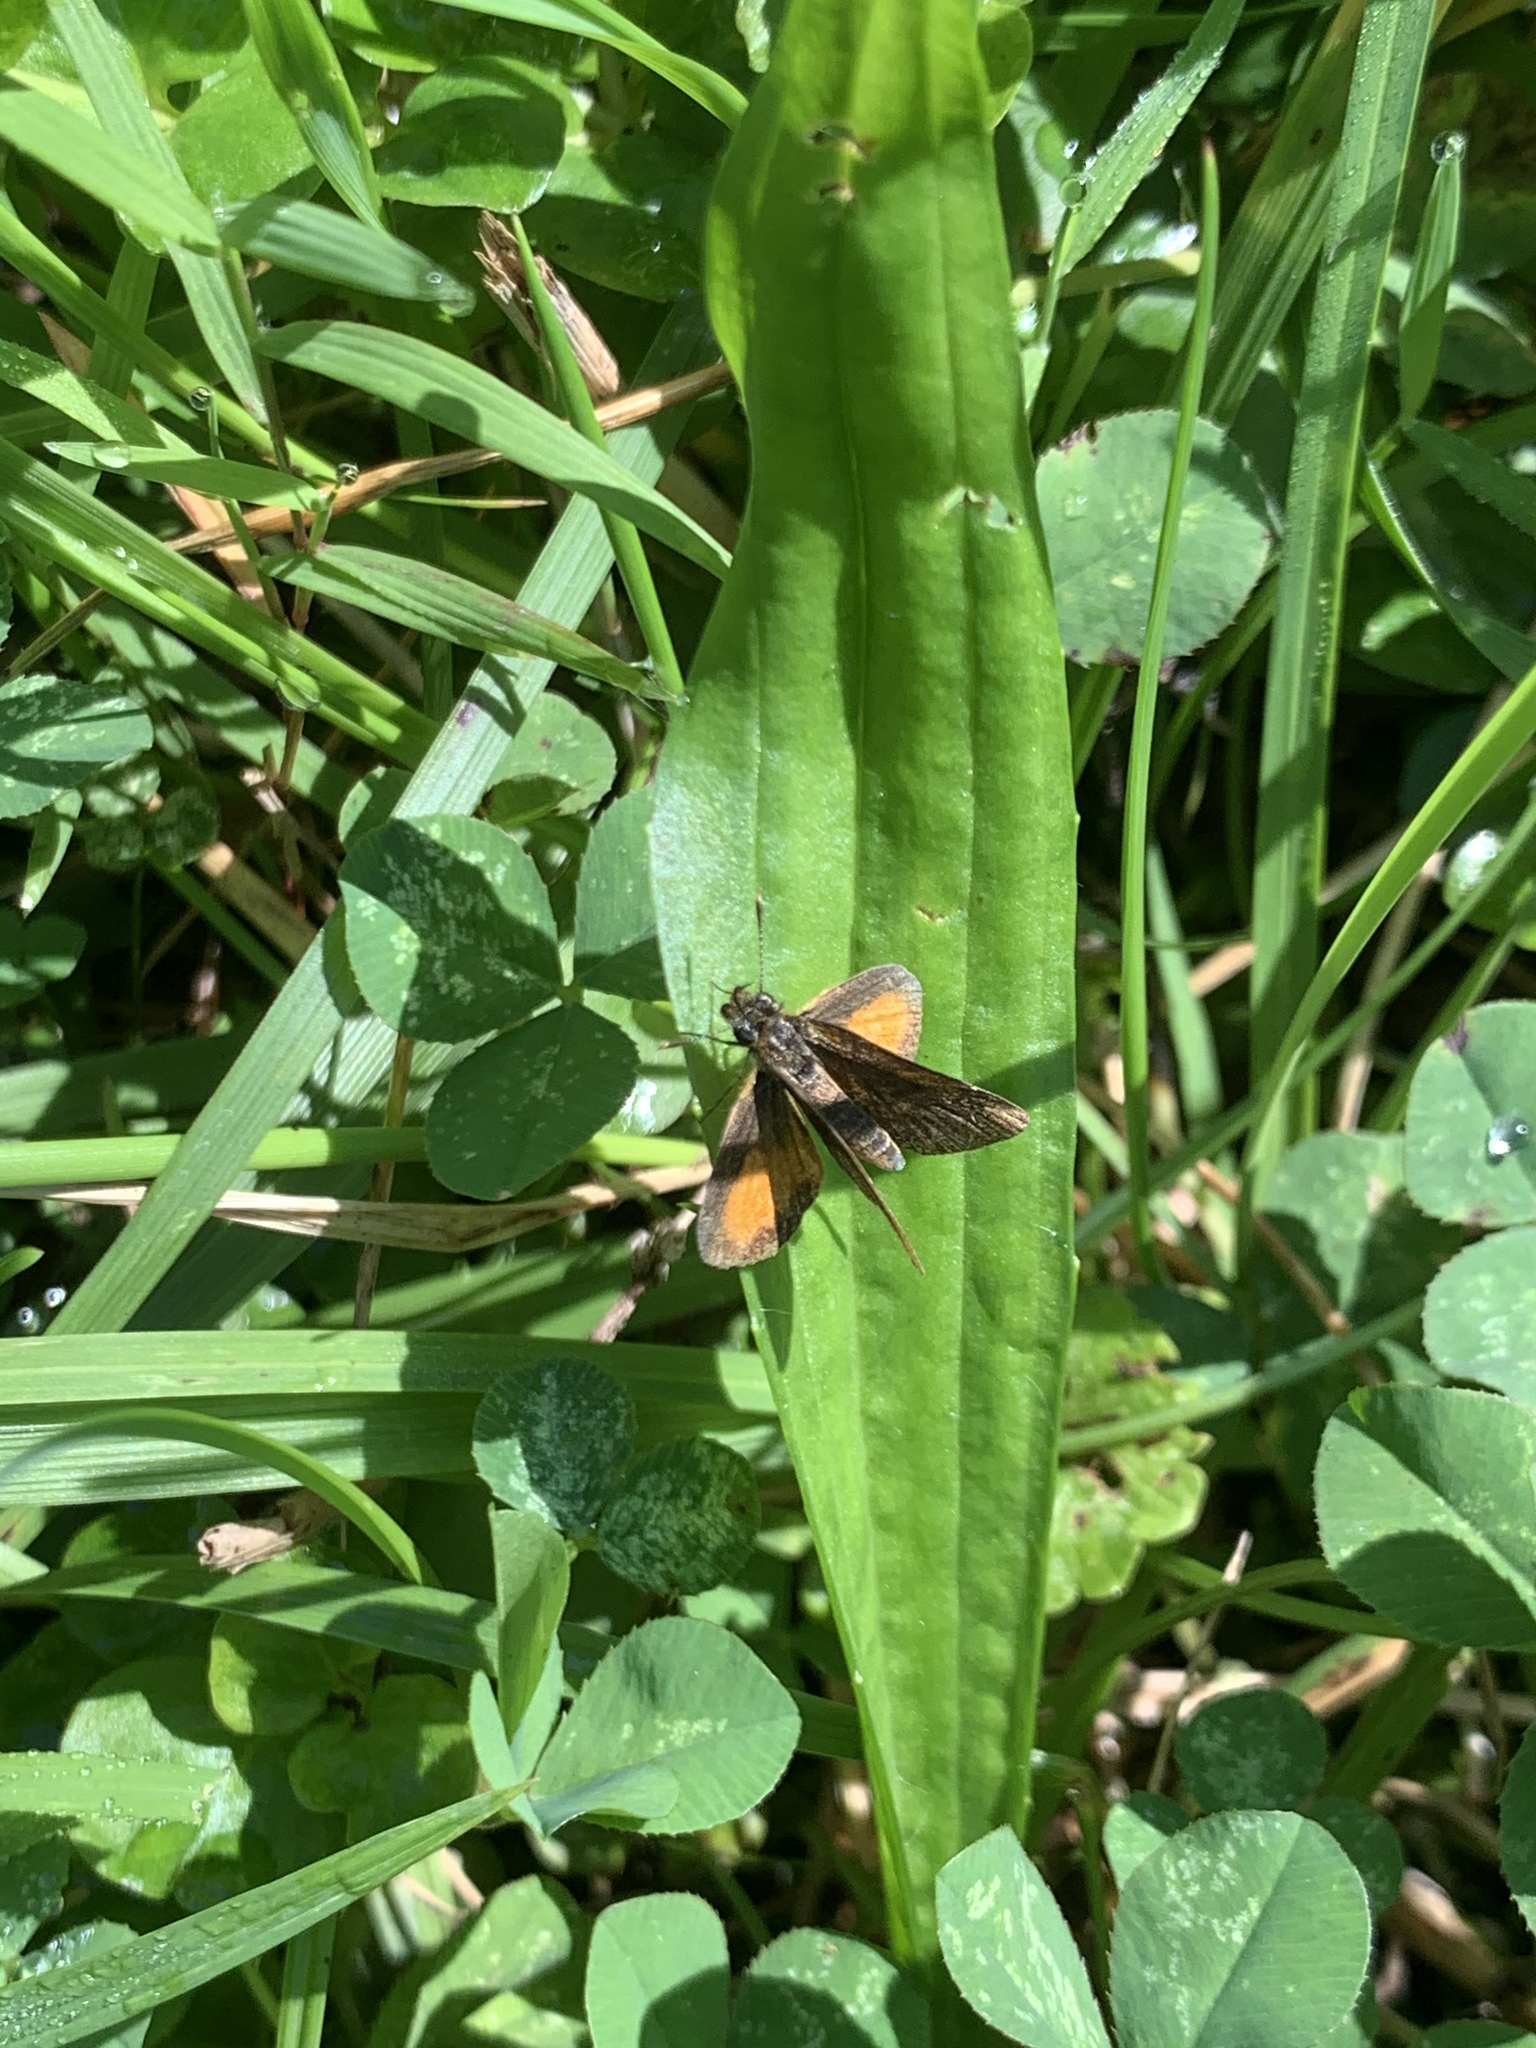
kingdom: Animalia
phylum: Arthropoda
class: Insecta
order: Lepidoptera
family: Hesperiidae
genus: Ancyloxypha
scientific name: Ancyloxypha numitor
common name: Least skipper
